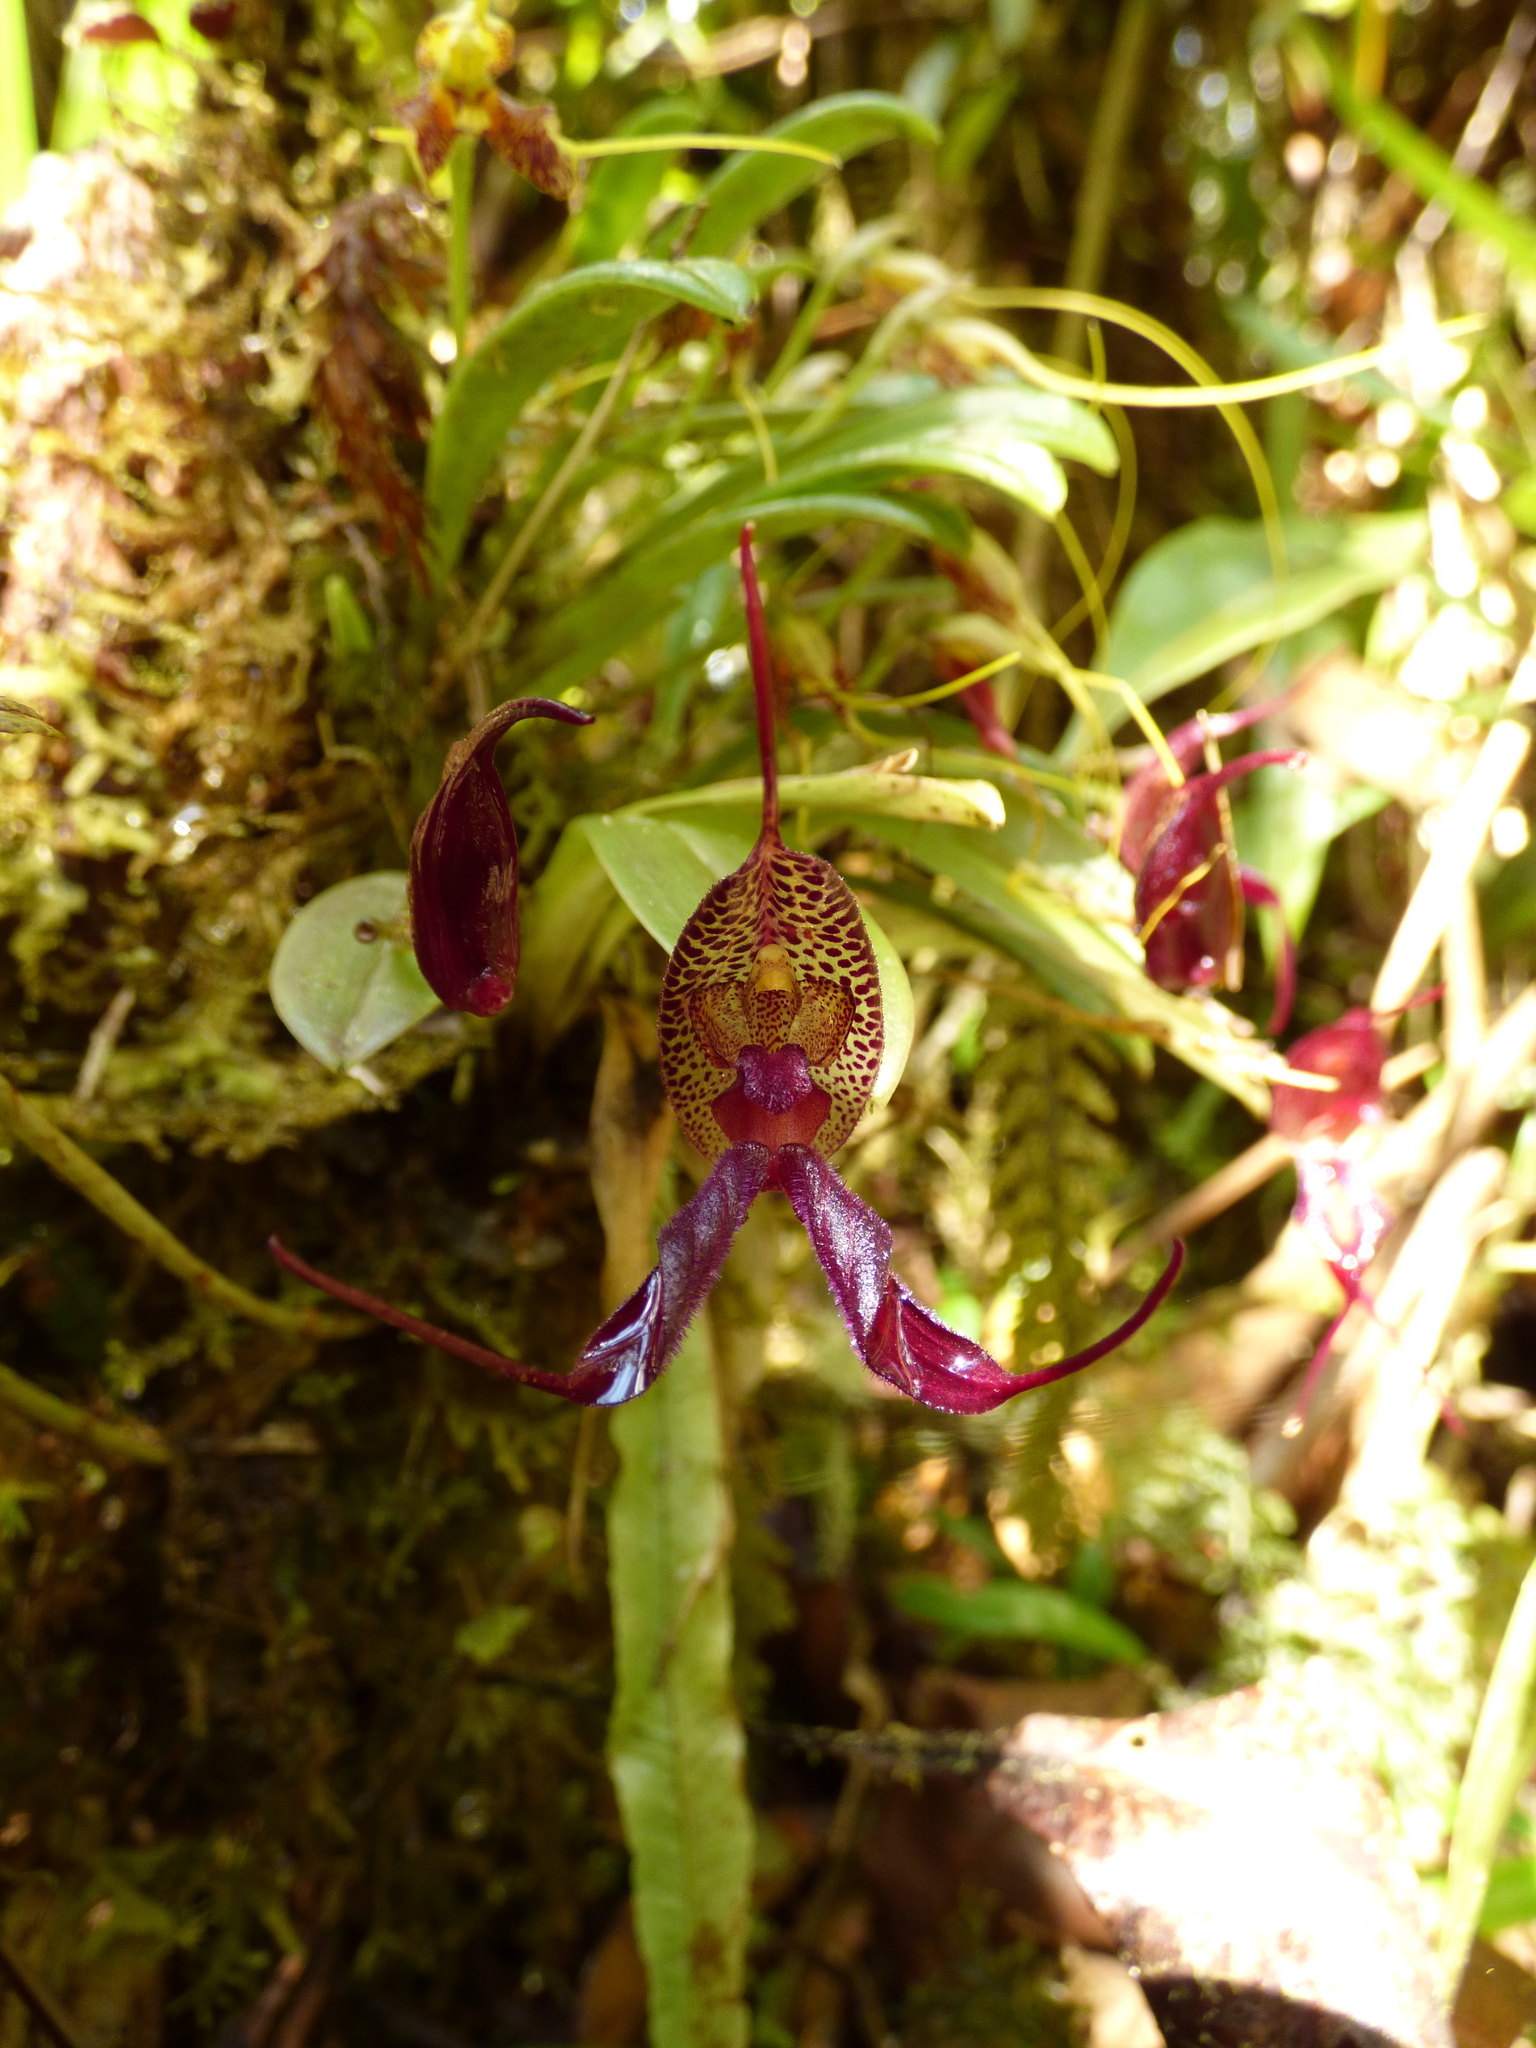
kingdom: Plantae
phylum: Tracheophyta
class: Liliopsida
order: Asparagales
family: Orchidaceae
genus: Masdevallia
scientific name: Masdevallia heteroptera
